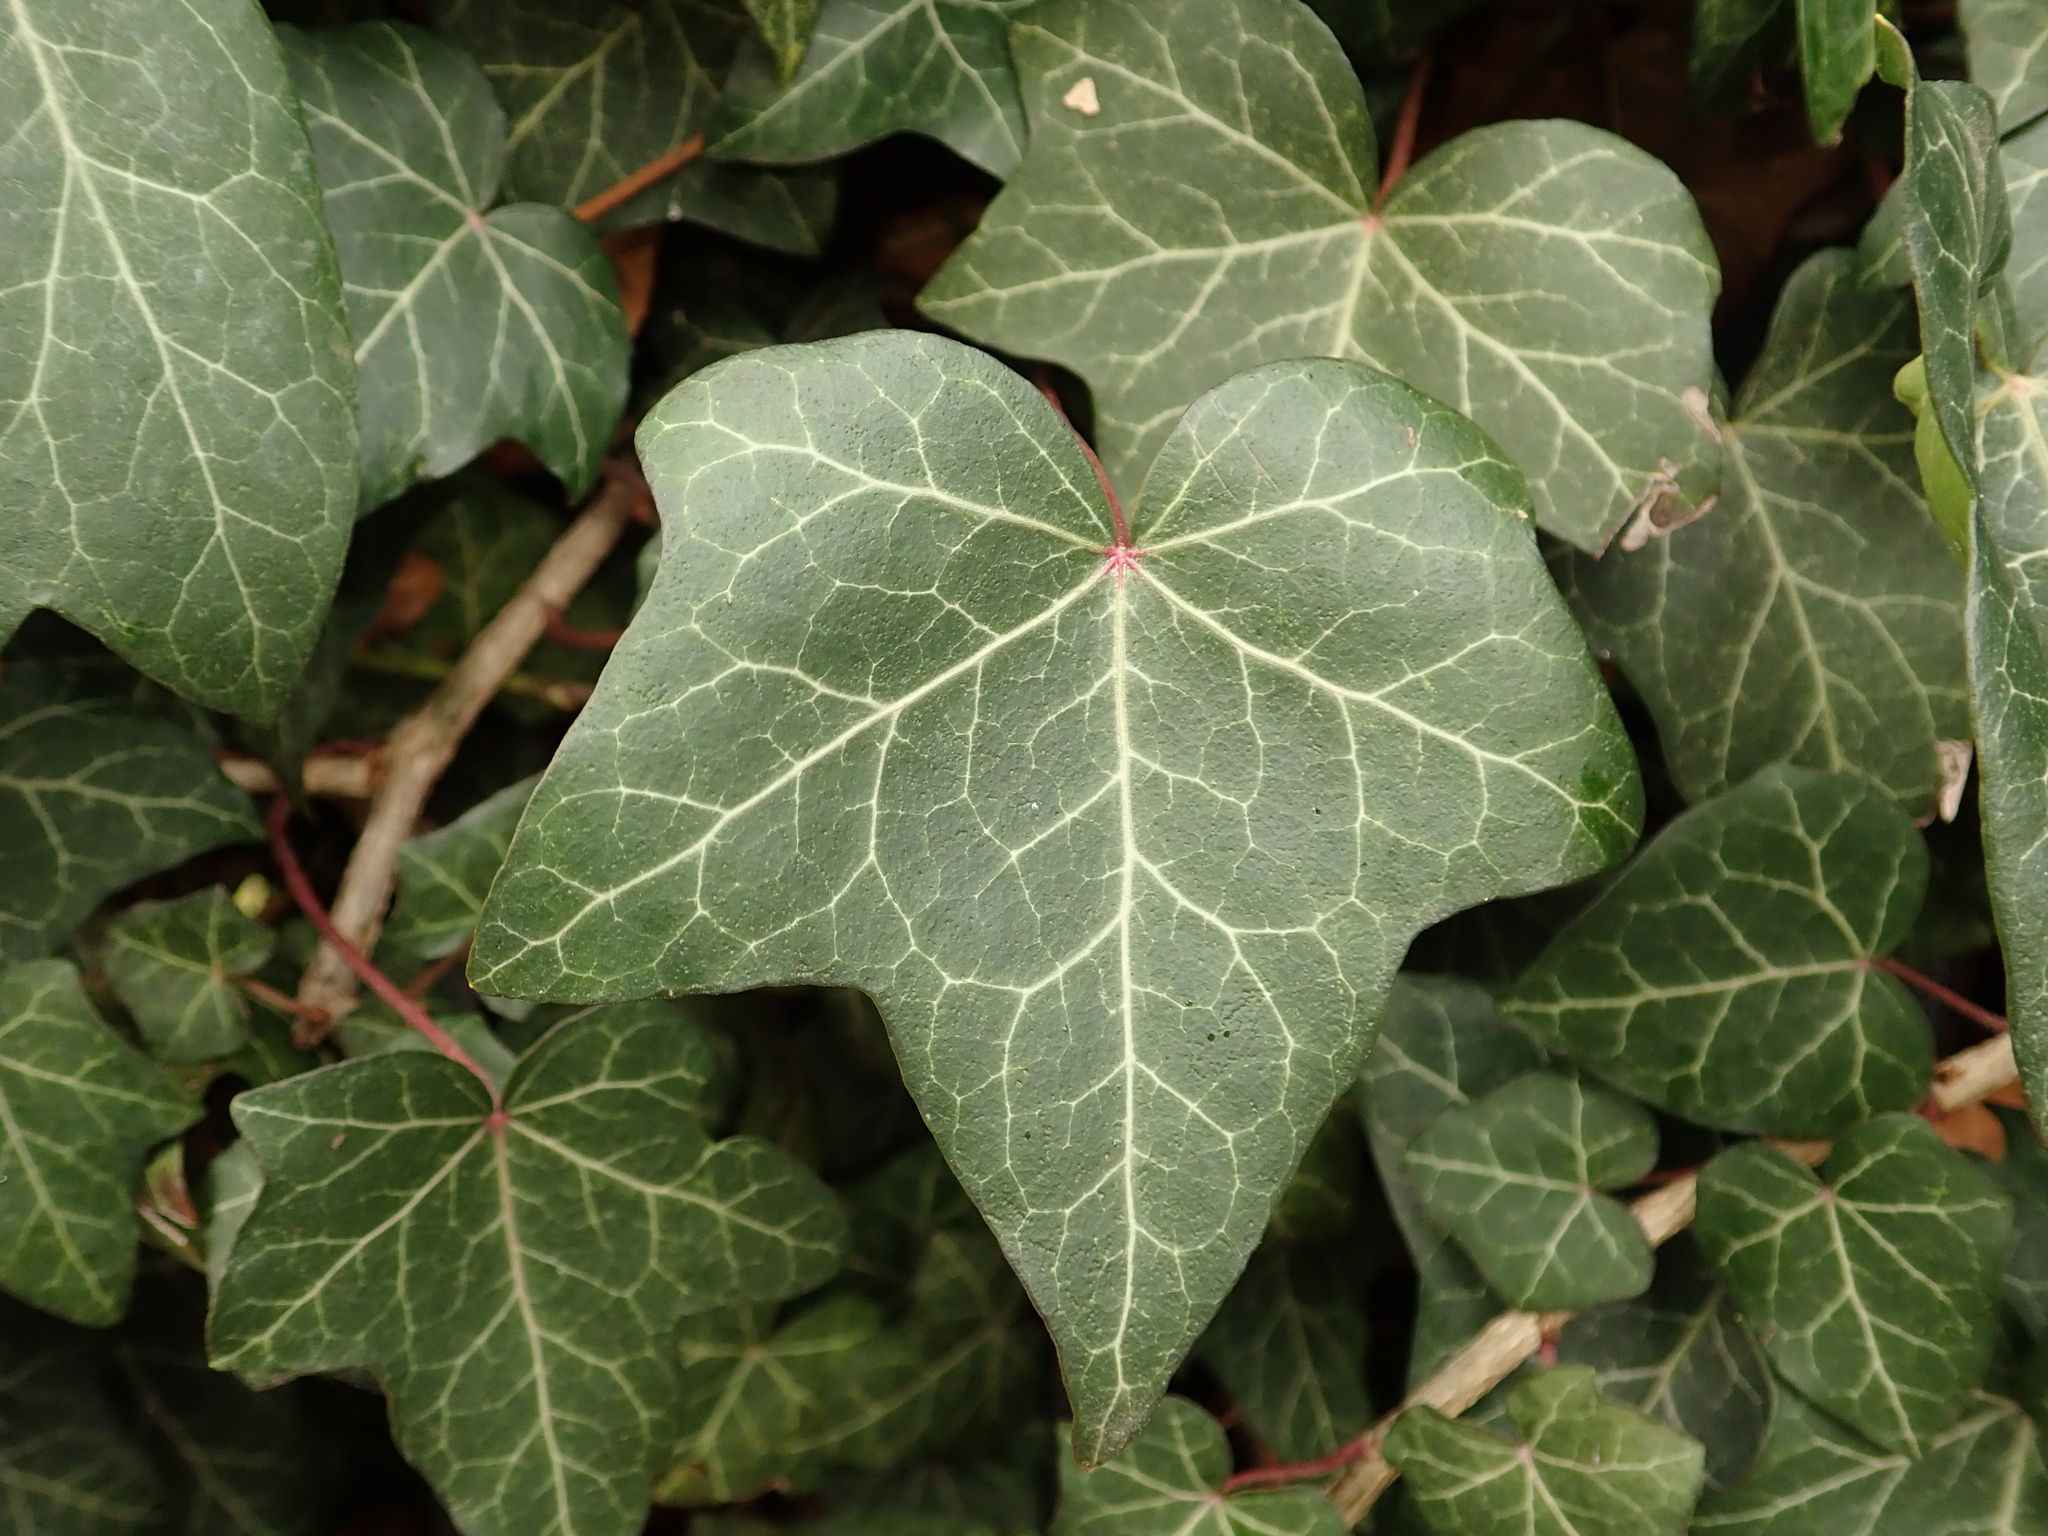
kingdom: Plantae
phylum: Tracheophyta
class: Magnoliopsida
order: Apiales
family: Araliaceae
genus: Hedera
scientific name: Hedera helix
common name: Ivy
